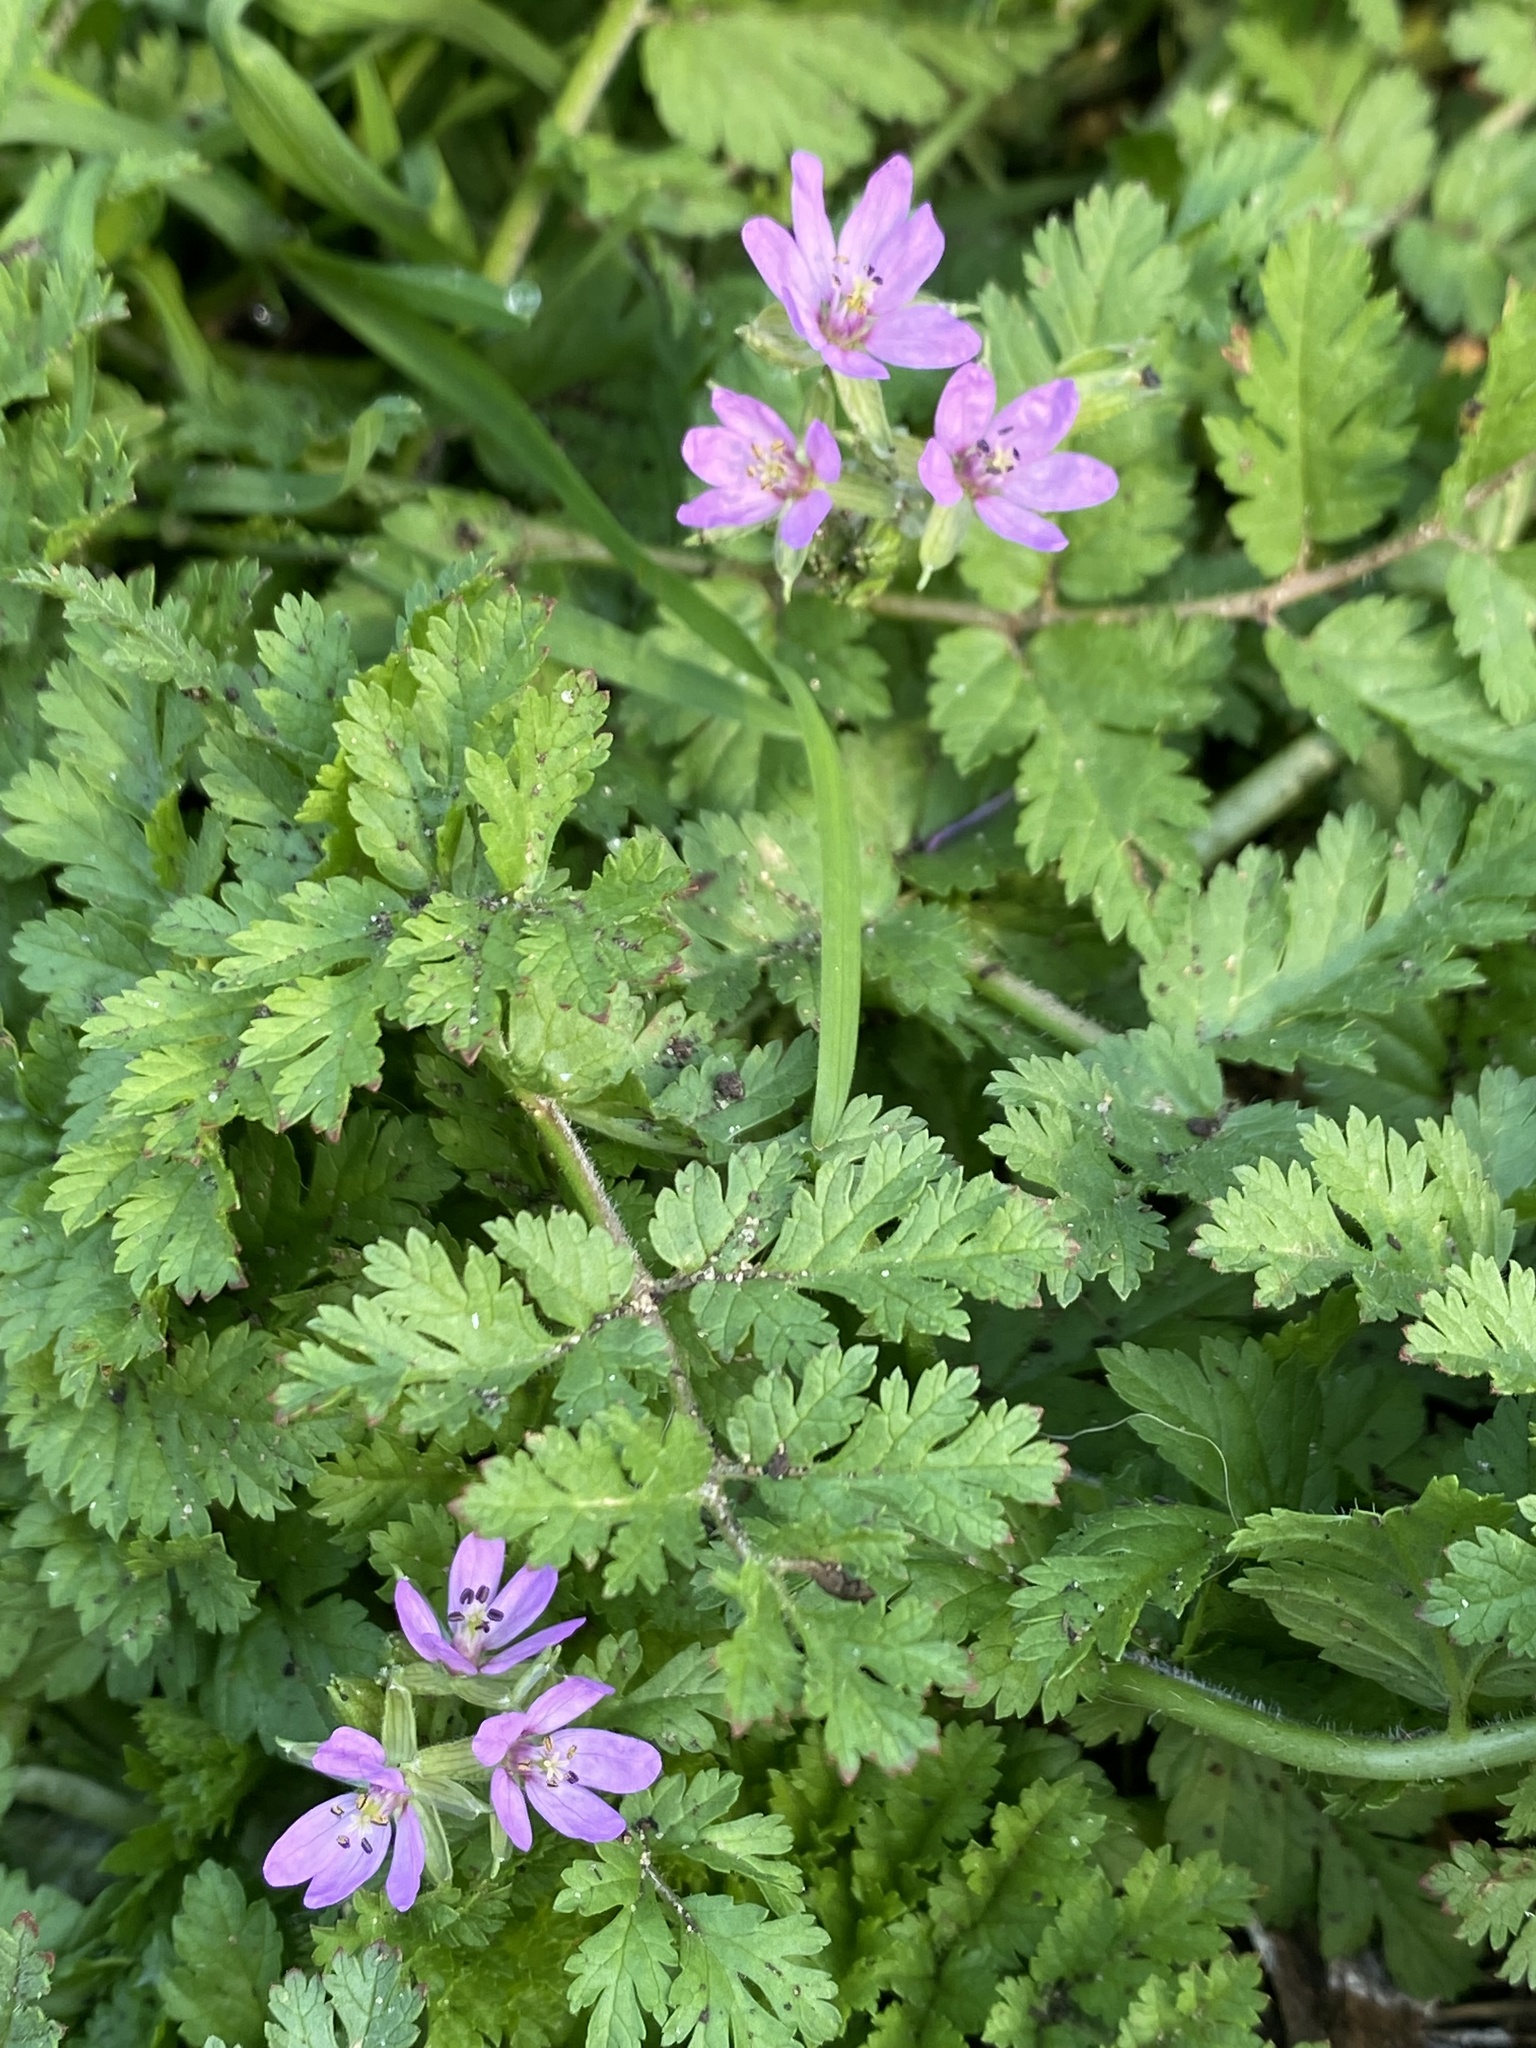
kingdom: Plantae
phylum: Tracheophyta
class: Magnoliopsida
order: Geraniales
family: Geraniaceae
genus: Erodium
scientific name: Erodium moschatum
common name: Musk stork's-bill
